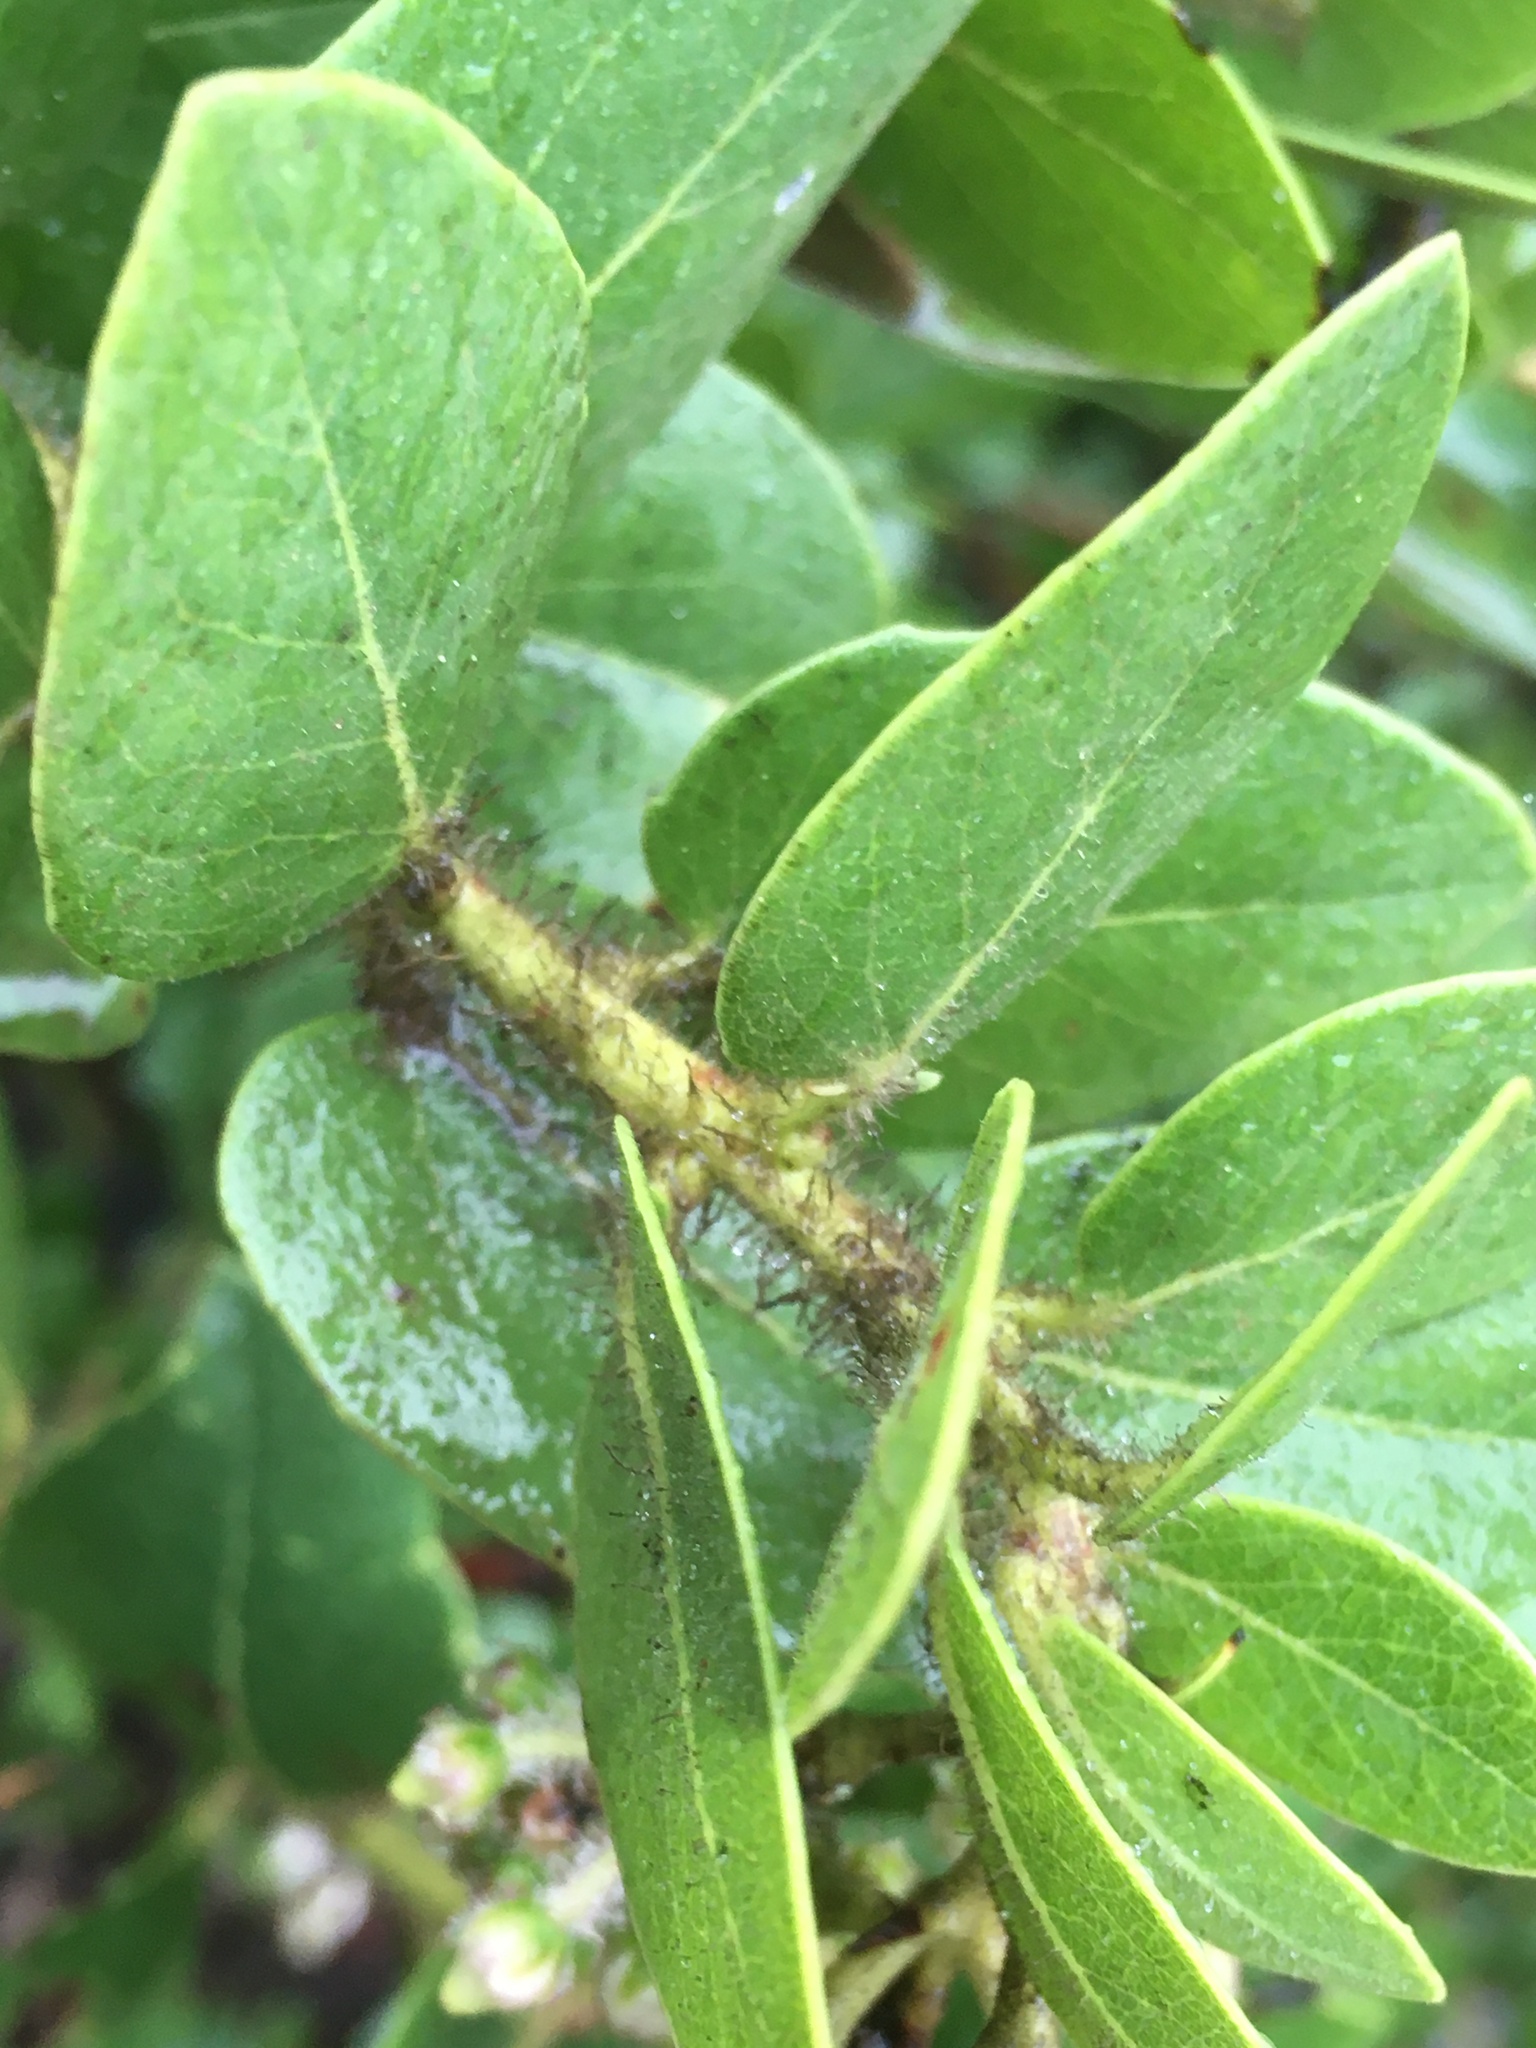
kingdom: Plantae
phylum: Tracheophyta
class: Magnoliopsida
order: Ericales
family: Ericaceae
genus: Arctostaphylos
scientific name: Arctostaphylos viridissima
